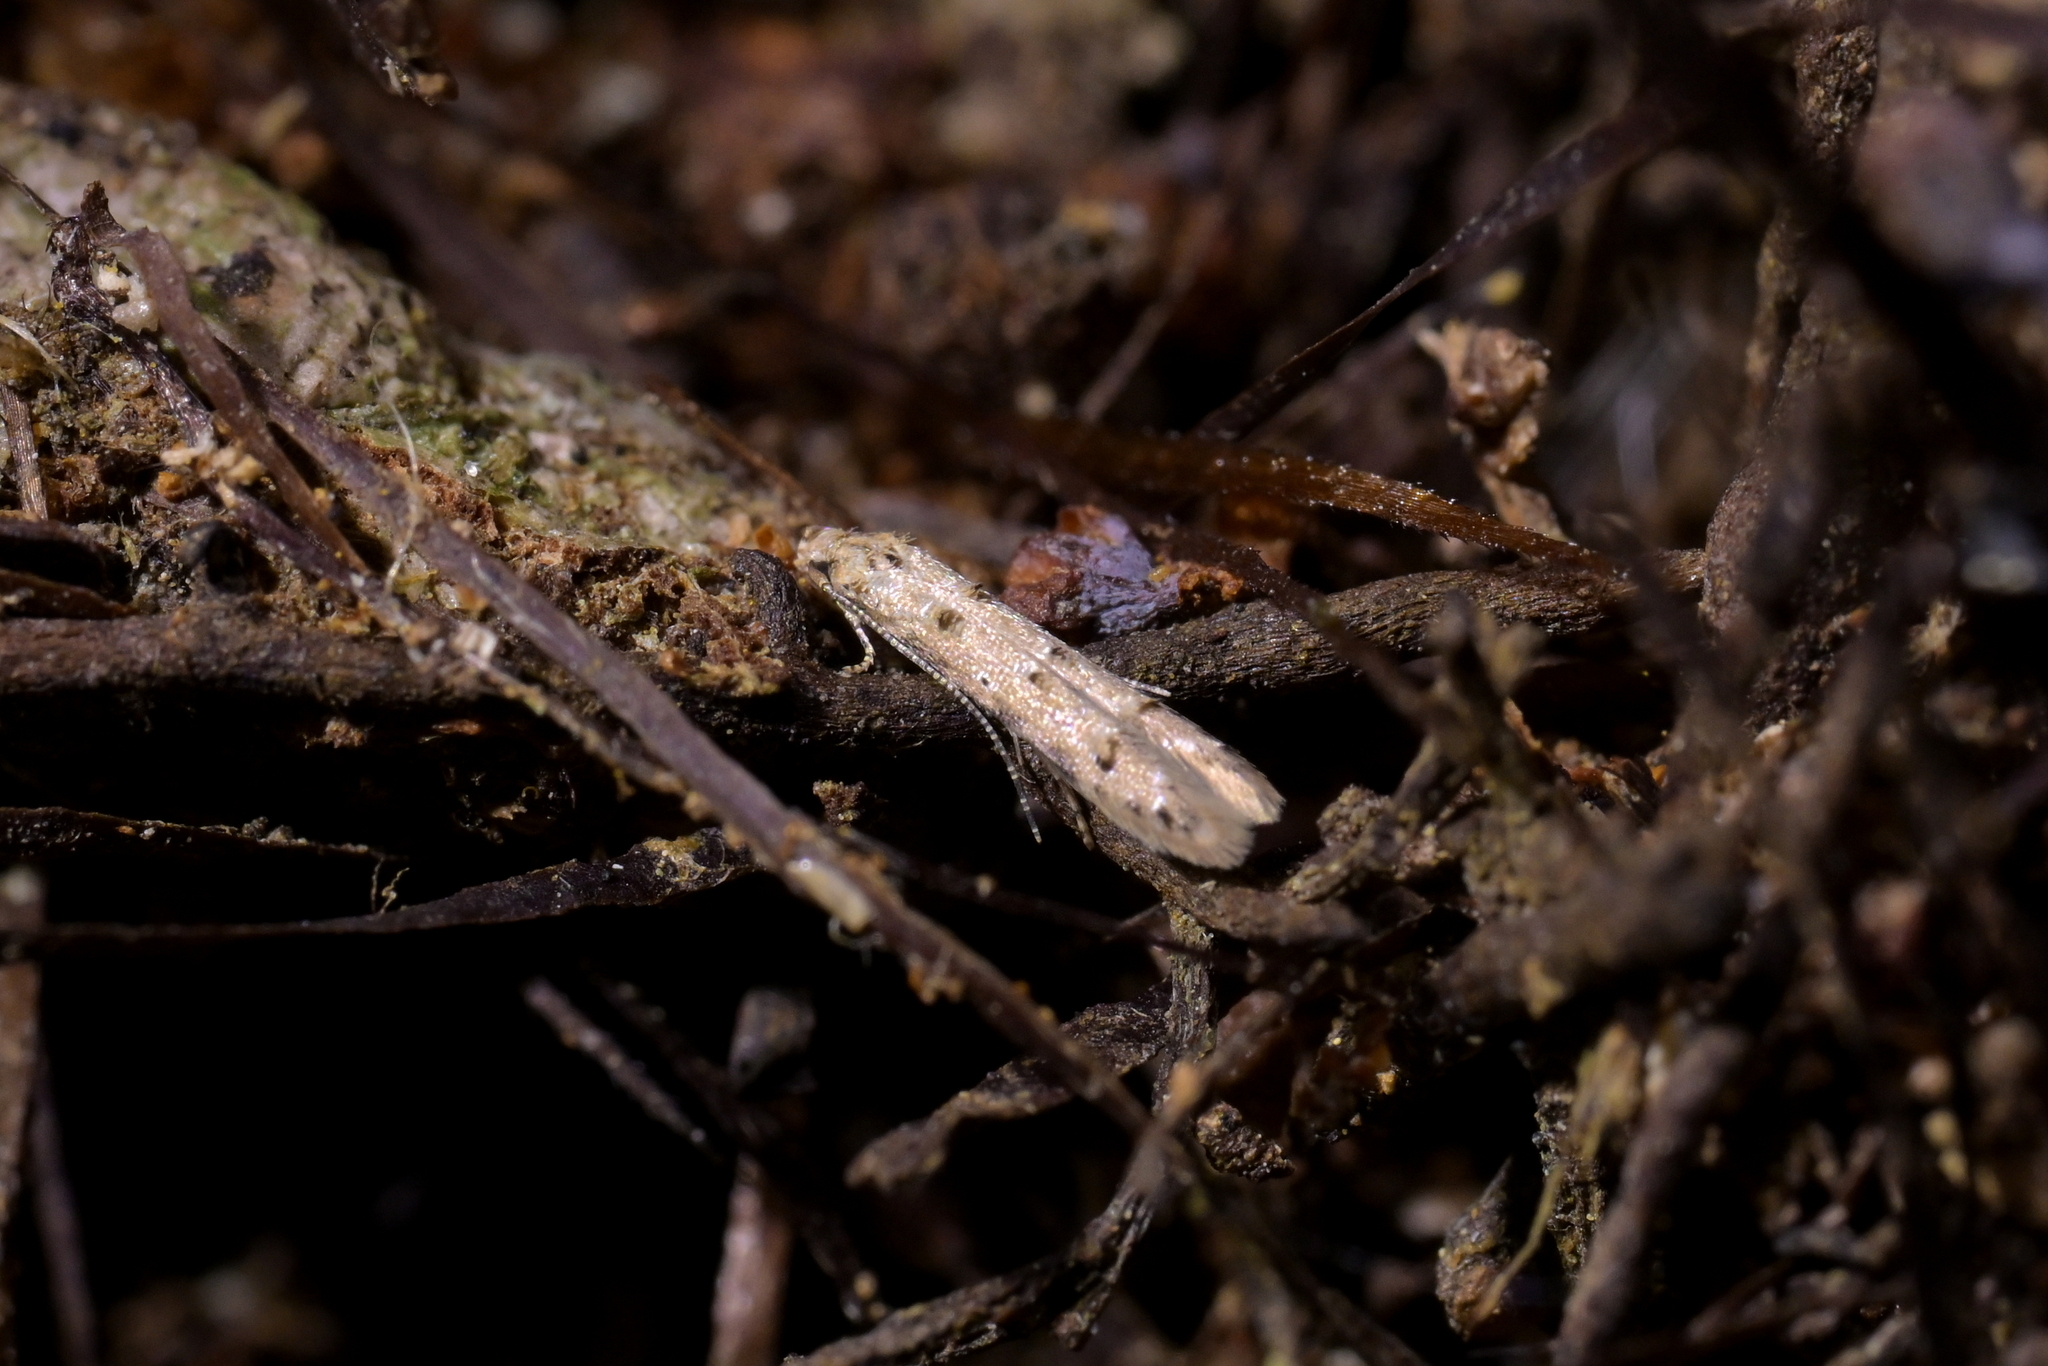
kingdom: Animalia
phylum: Arthropoda
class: Insecta
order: Lepidoptera
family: Elachistidae
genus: Microcolona
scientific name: Microcolona limodes
